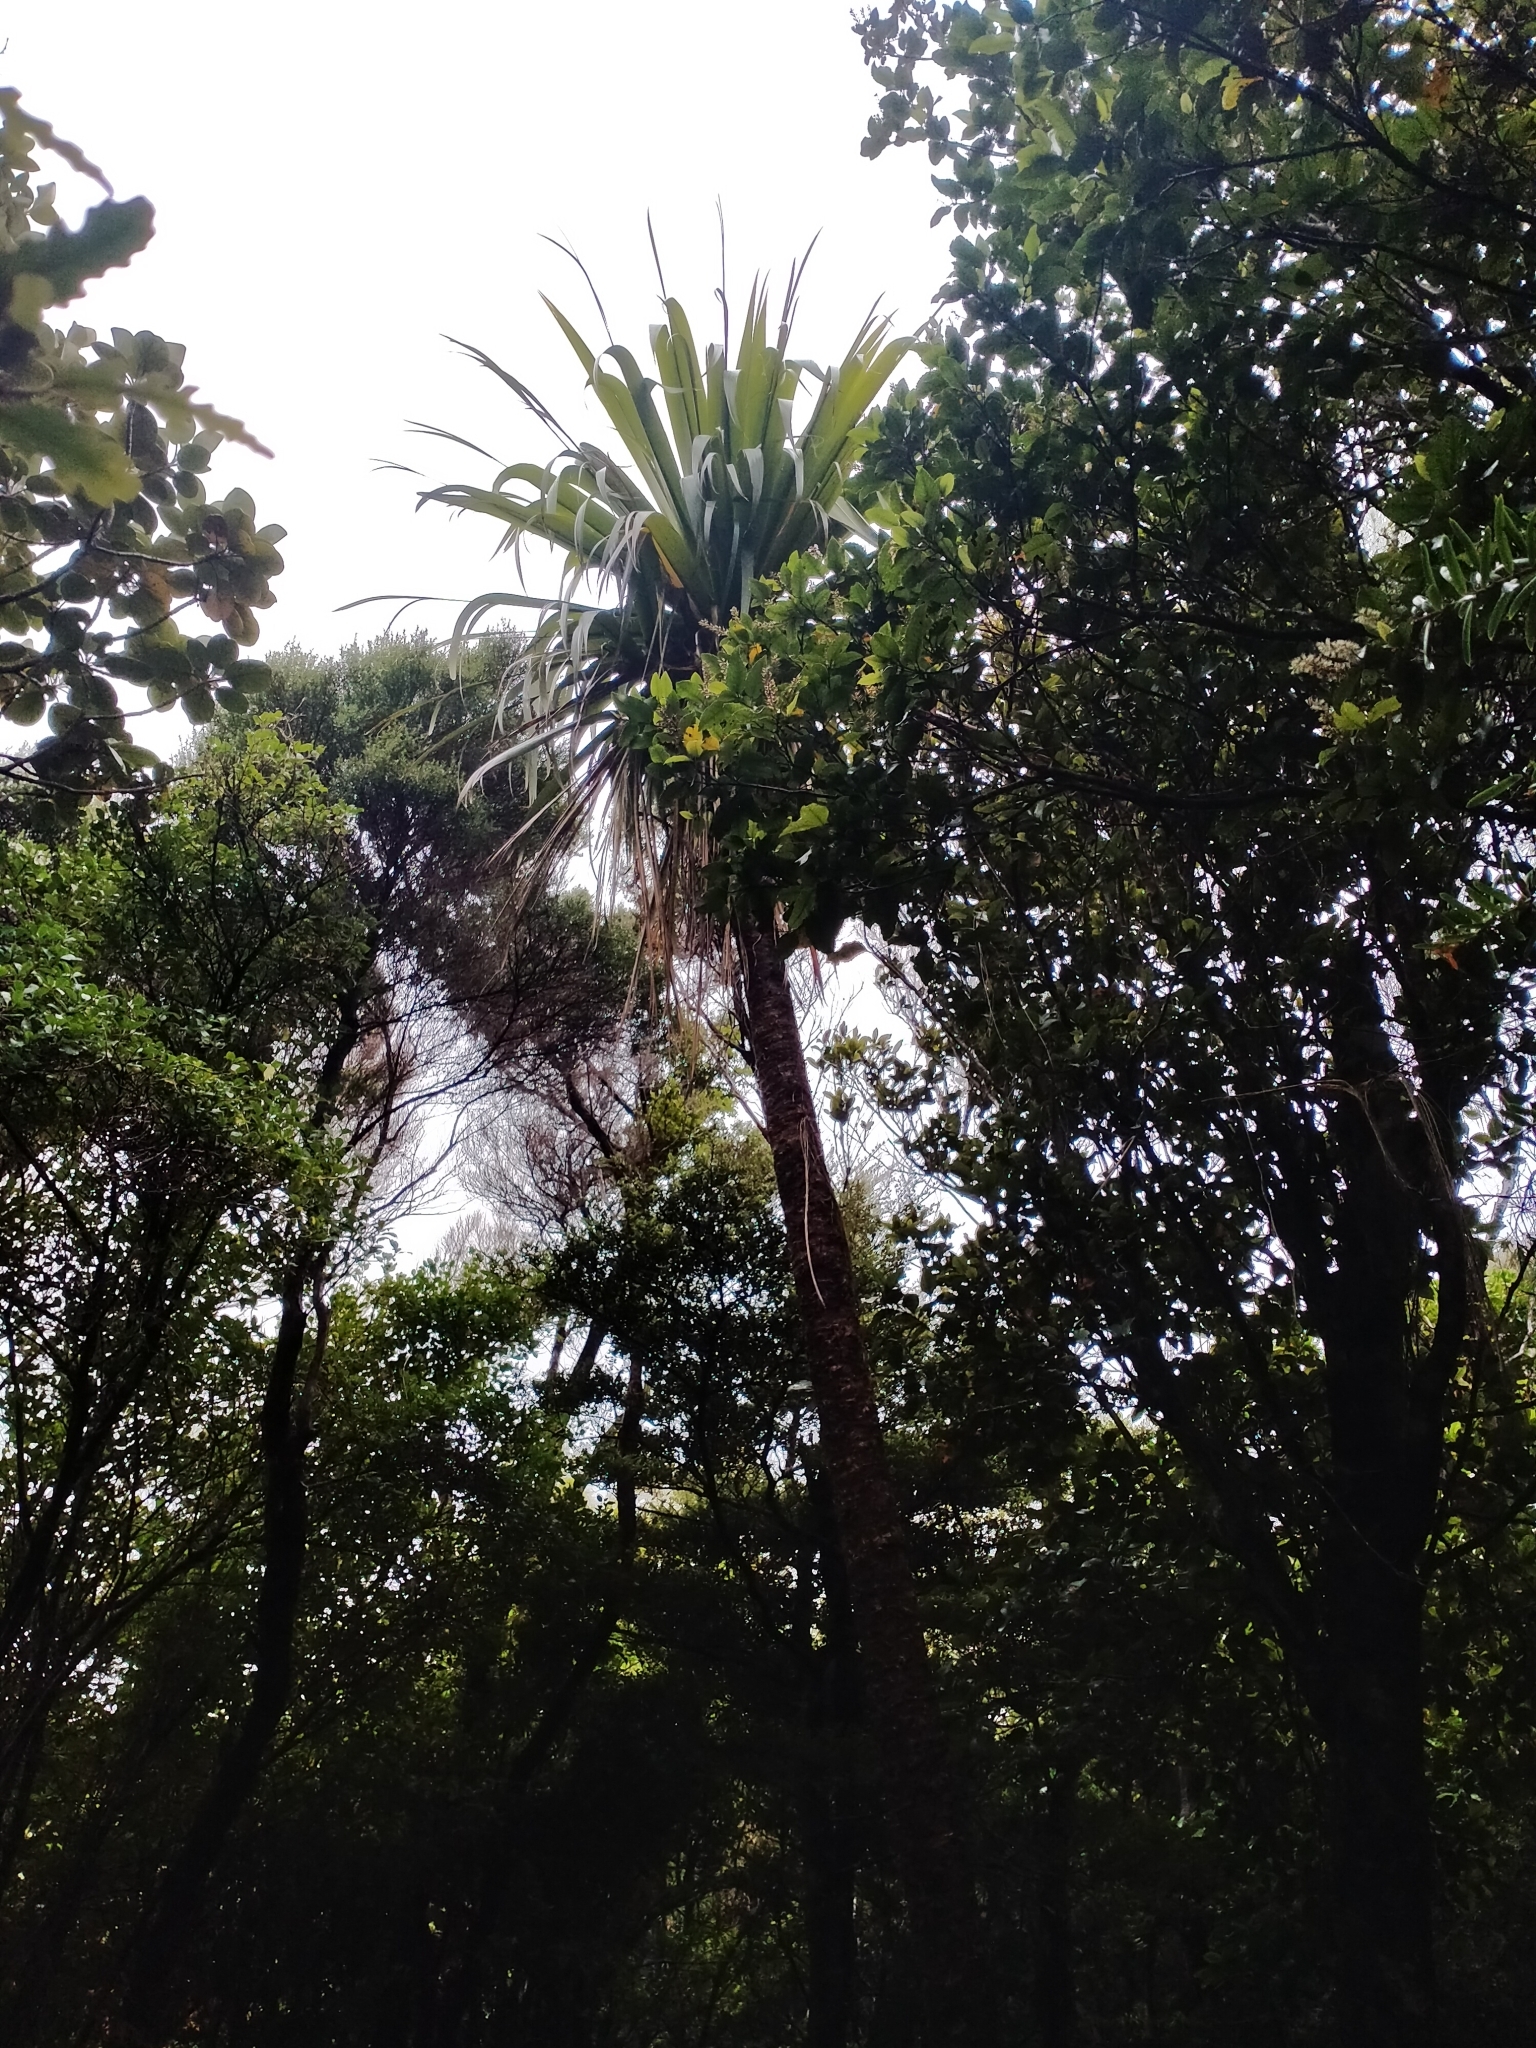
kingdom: Plantae
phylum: Tracheophyta
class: Liliopsida
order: Asparagales
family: Asparagaceae
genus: Cordyline
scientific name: Cordyline indivisa
